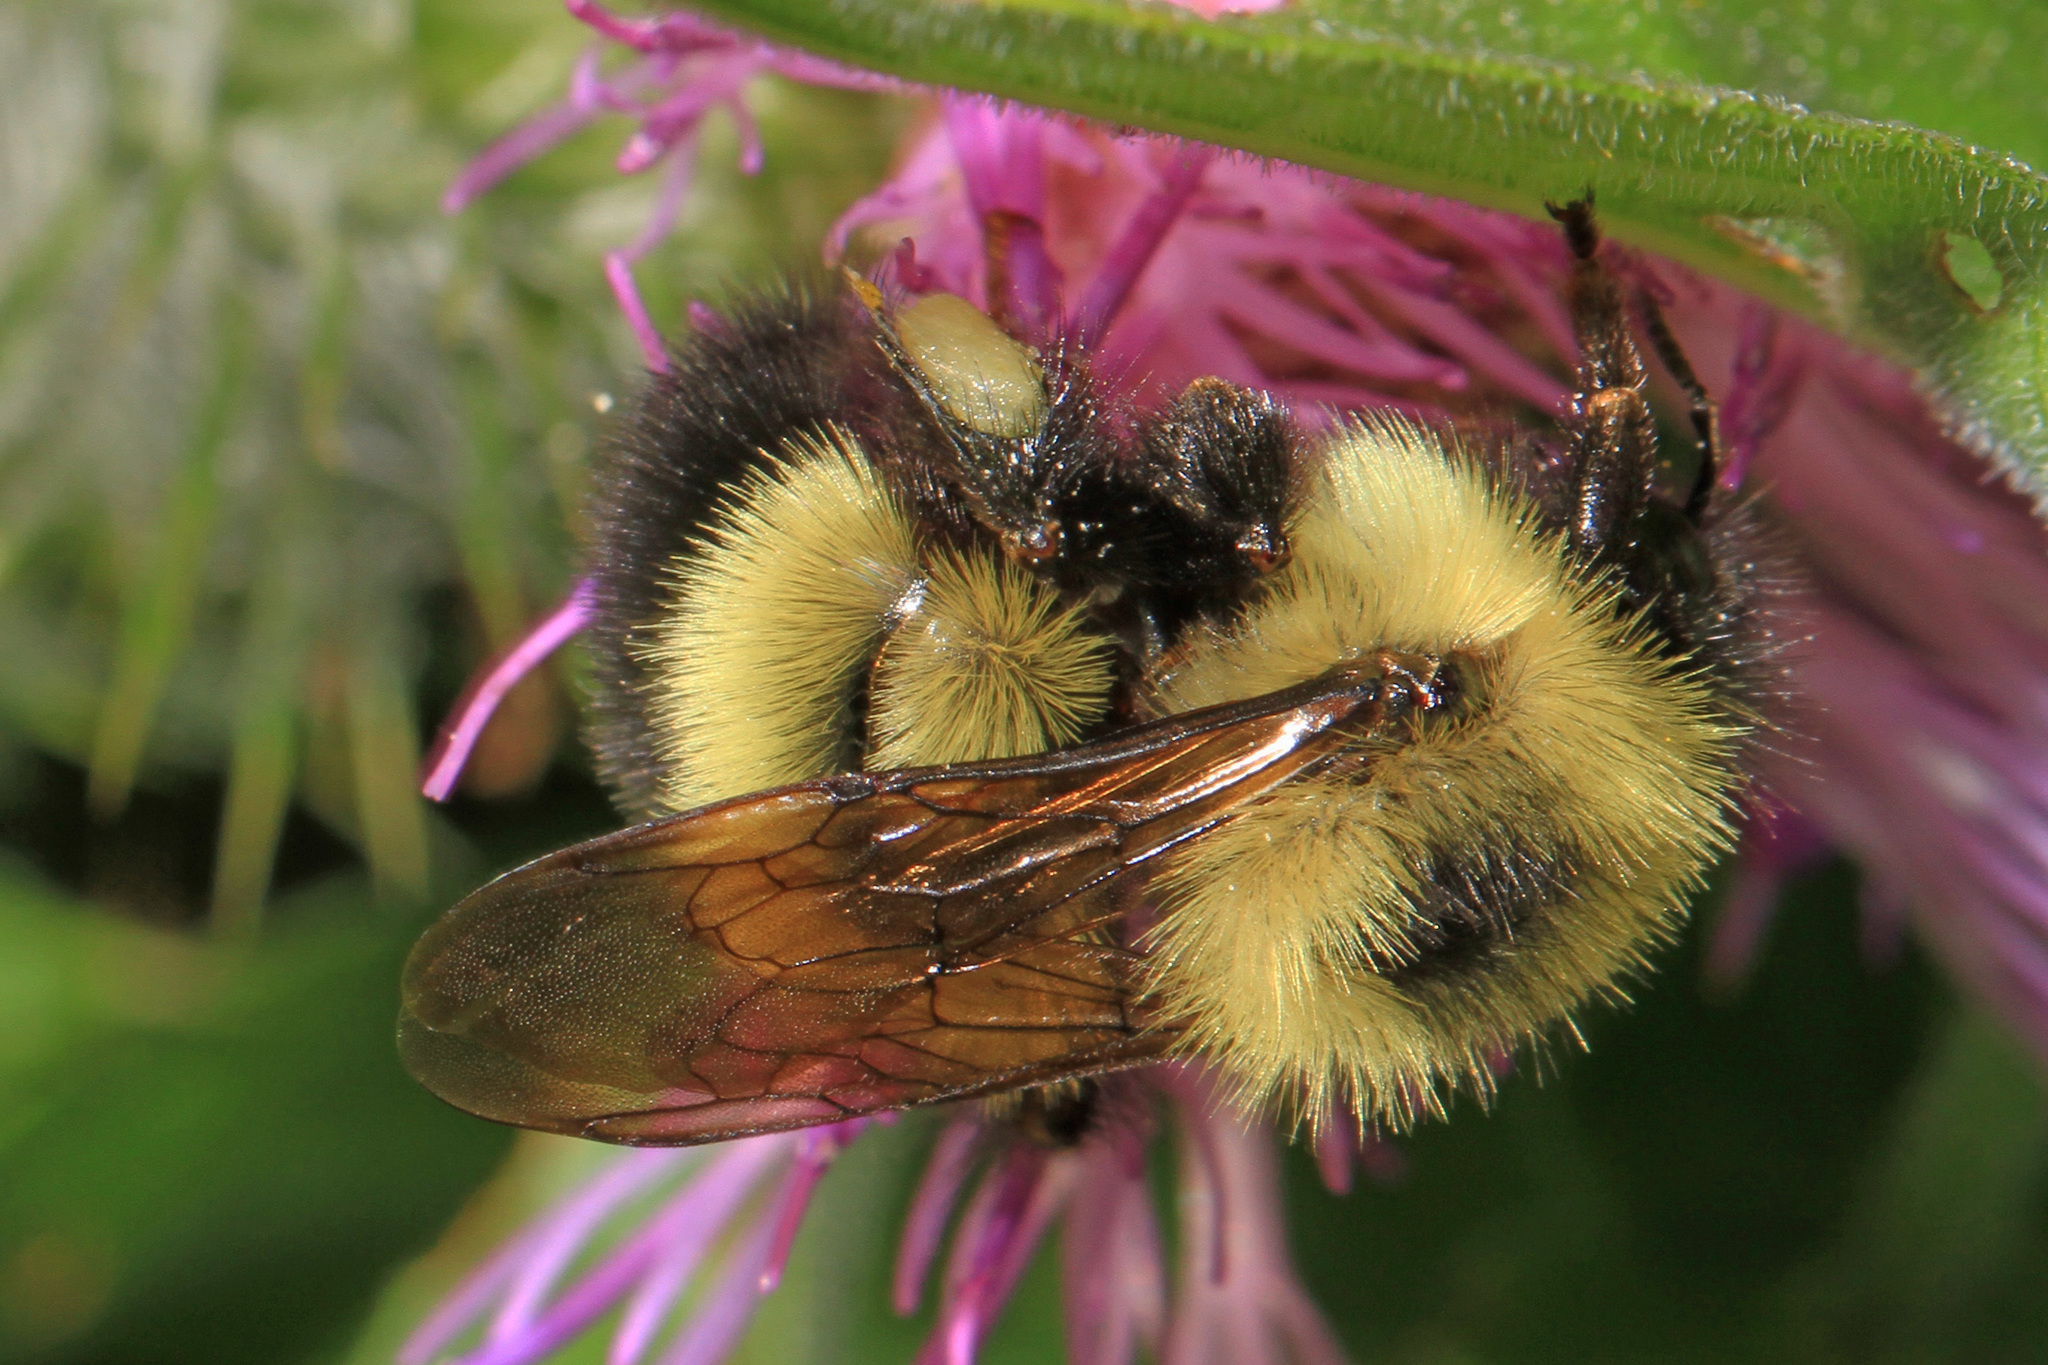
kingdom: Animalia
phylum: Arthropoda
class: Insecta
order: Hymenoptera
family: Apidae
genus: Bombus
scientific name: Bombus vagans
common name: Half-black bumble bee
